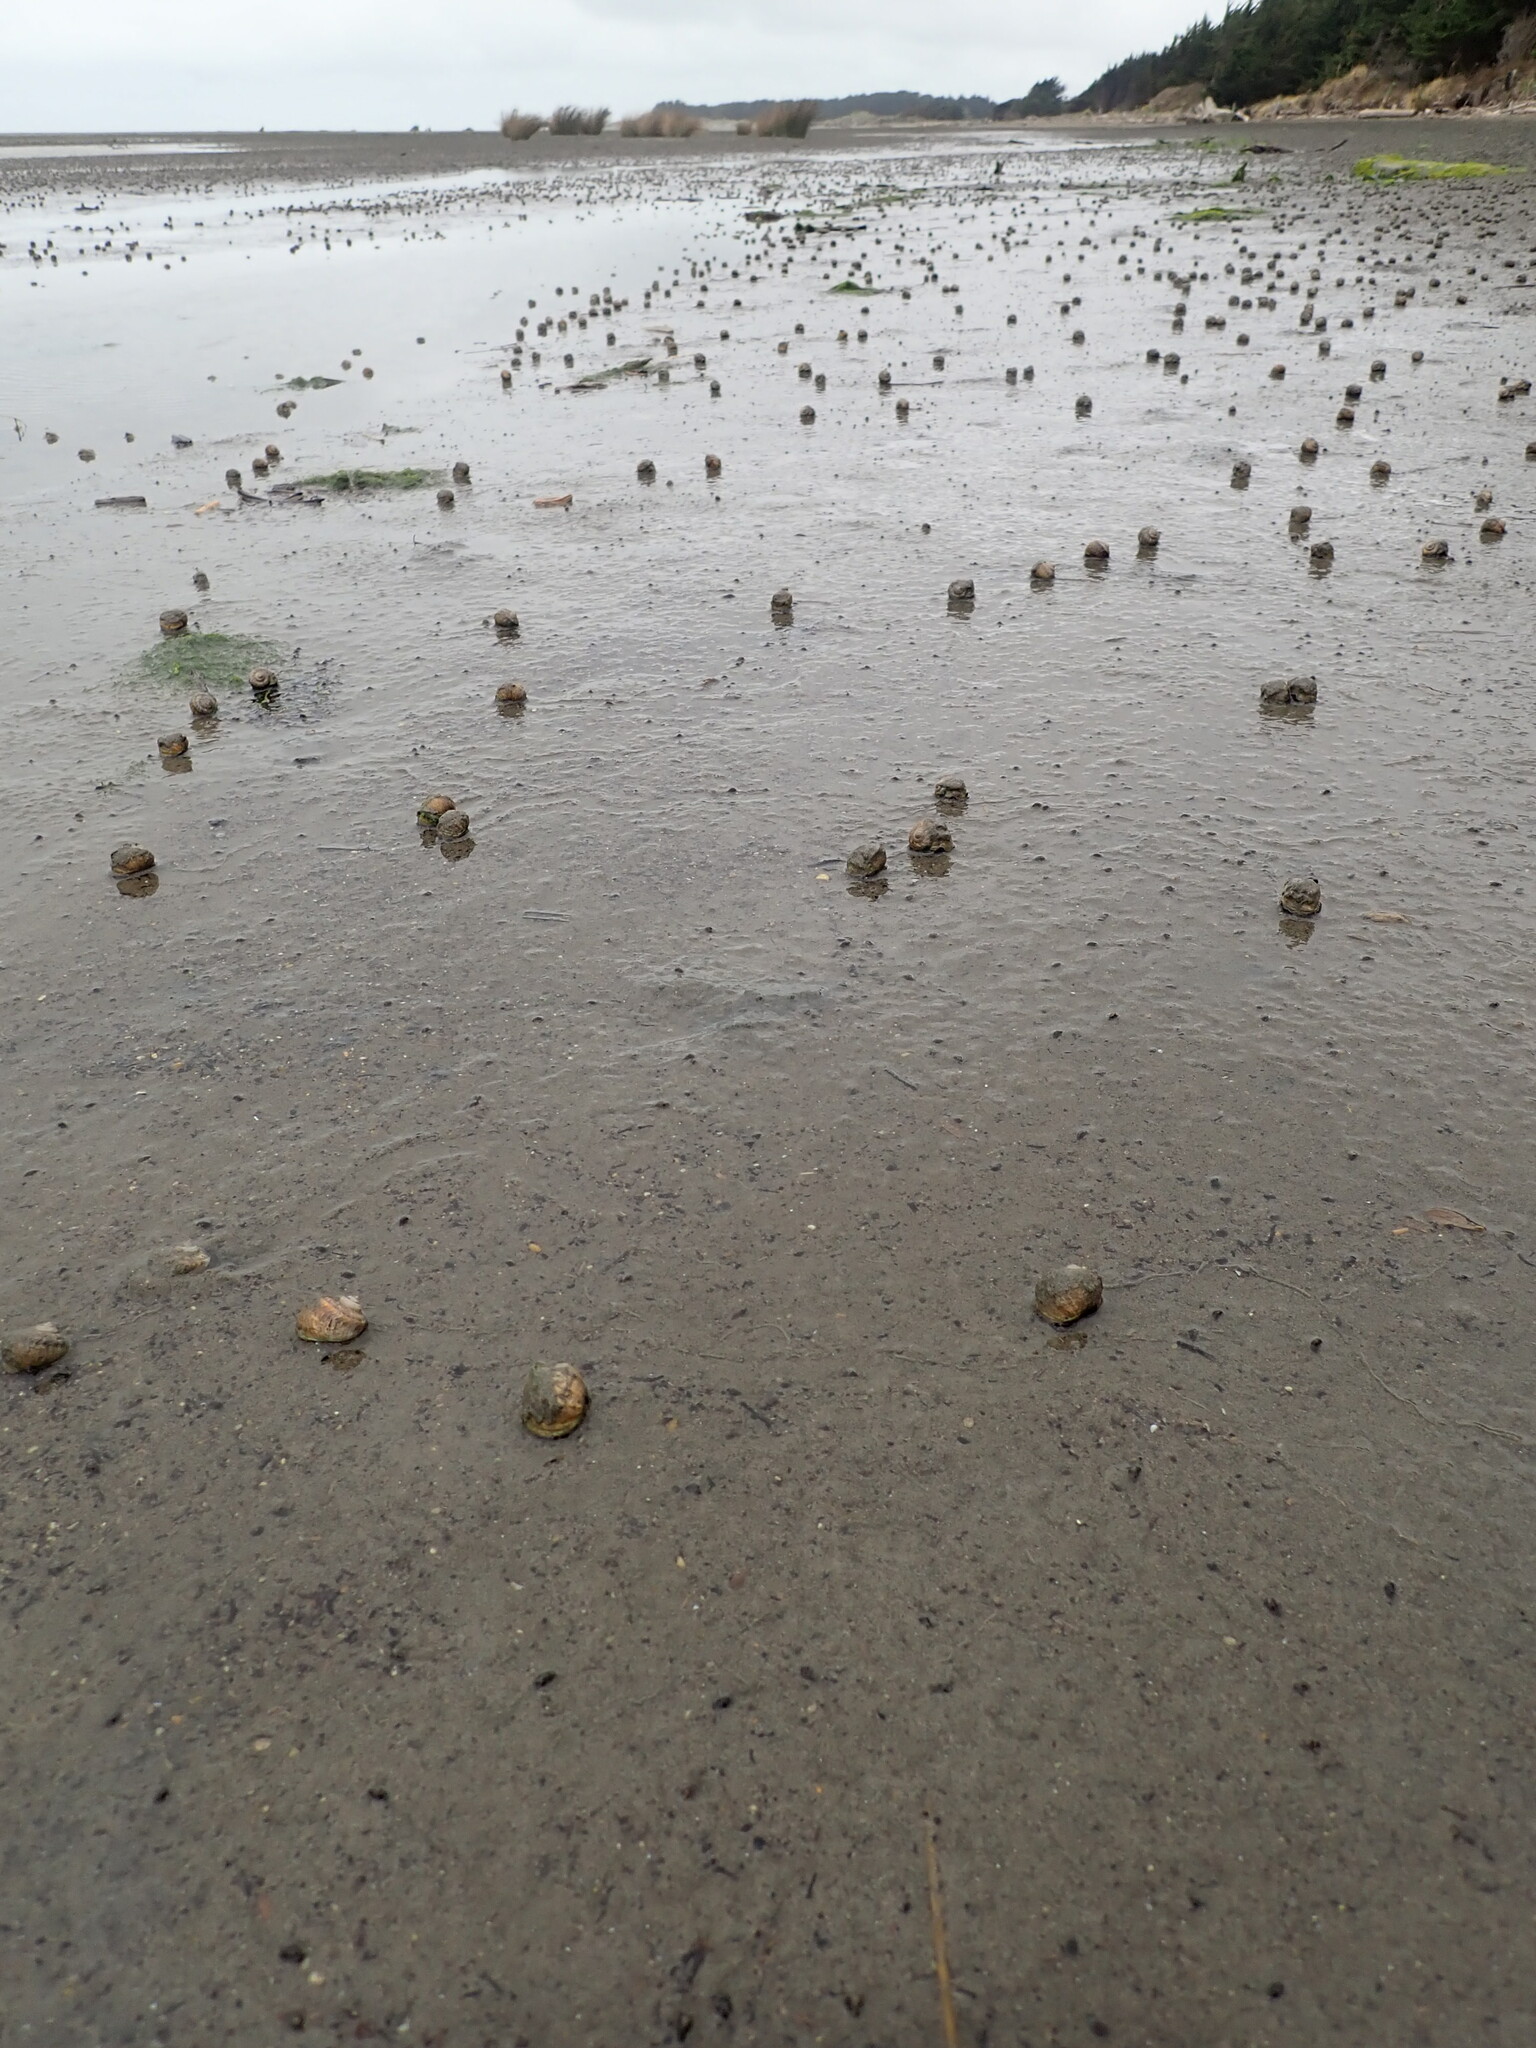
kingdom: Animalia
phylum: Mollusca
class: Gastropoda
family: Amphibolidae
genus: Amphibola
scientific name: Amphibola crenata
